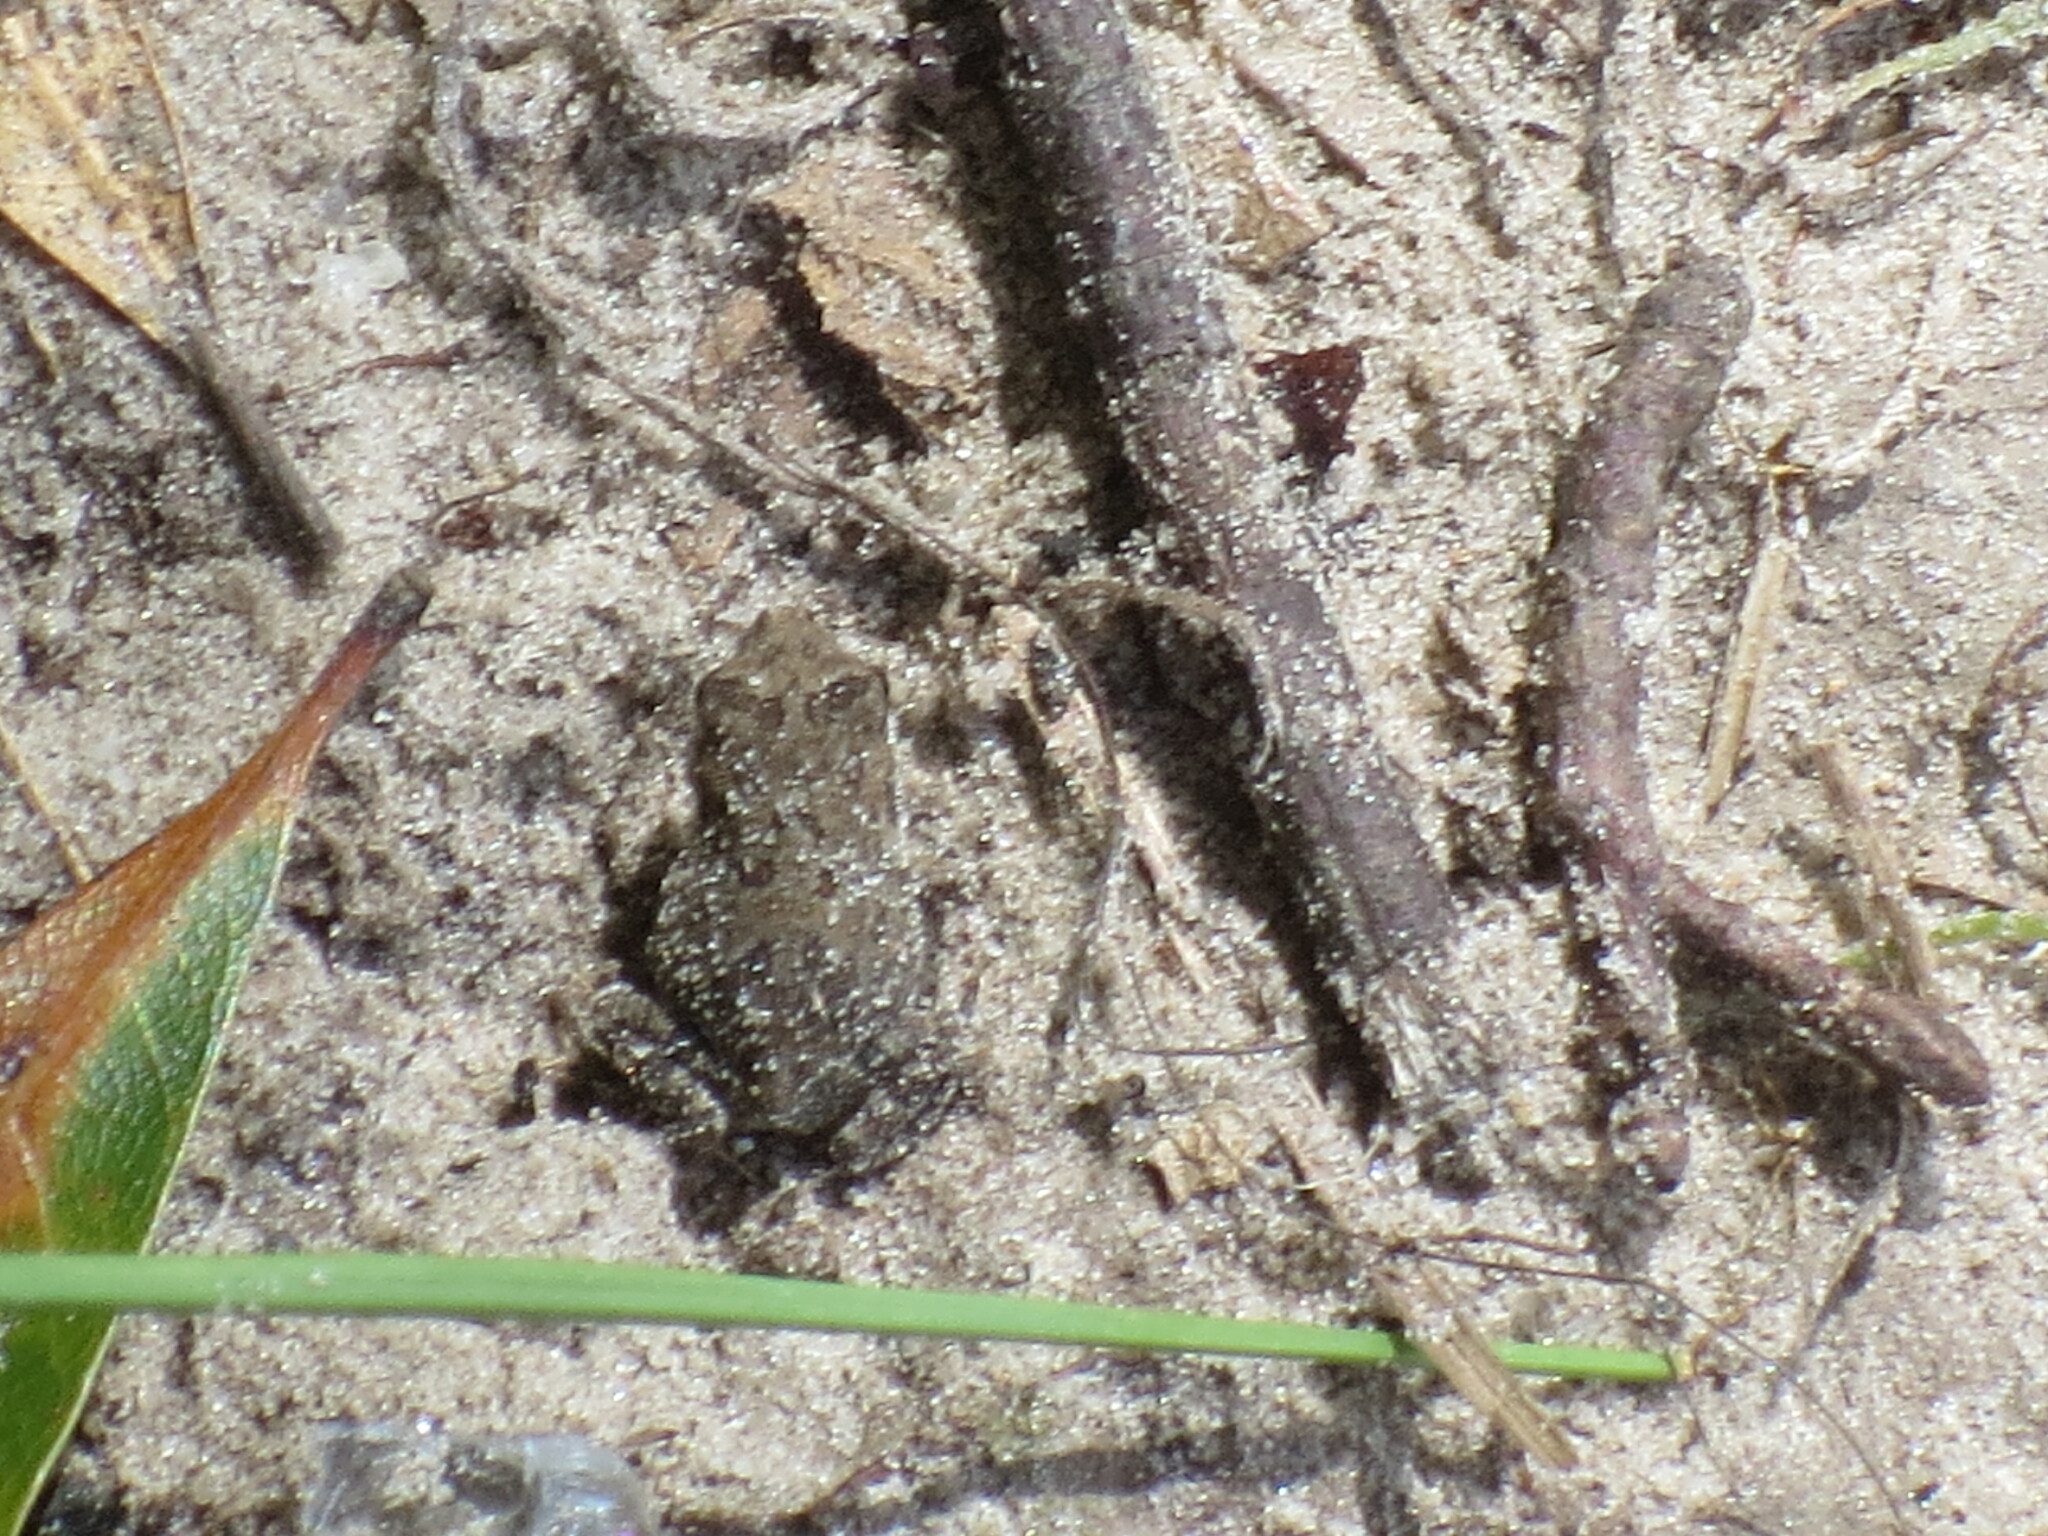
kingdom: Animalia
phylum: Chordata
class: Amphibia
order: Anura
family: Bufonidae
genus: Anaxyrus
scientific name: Anaxyrus terrestris
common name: Southern toad
